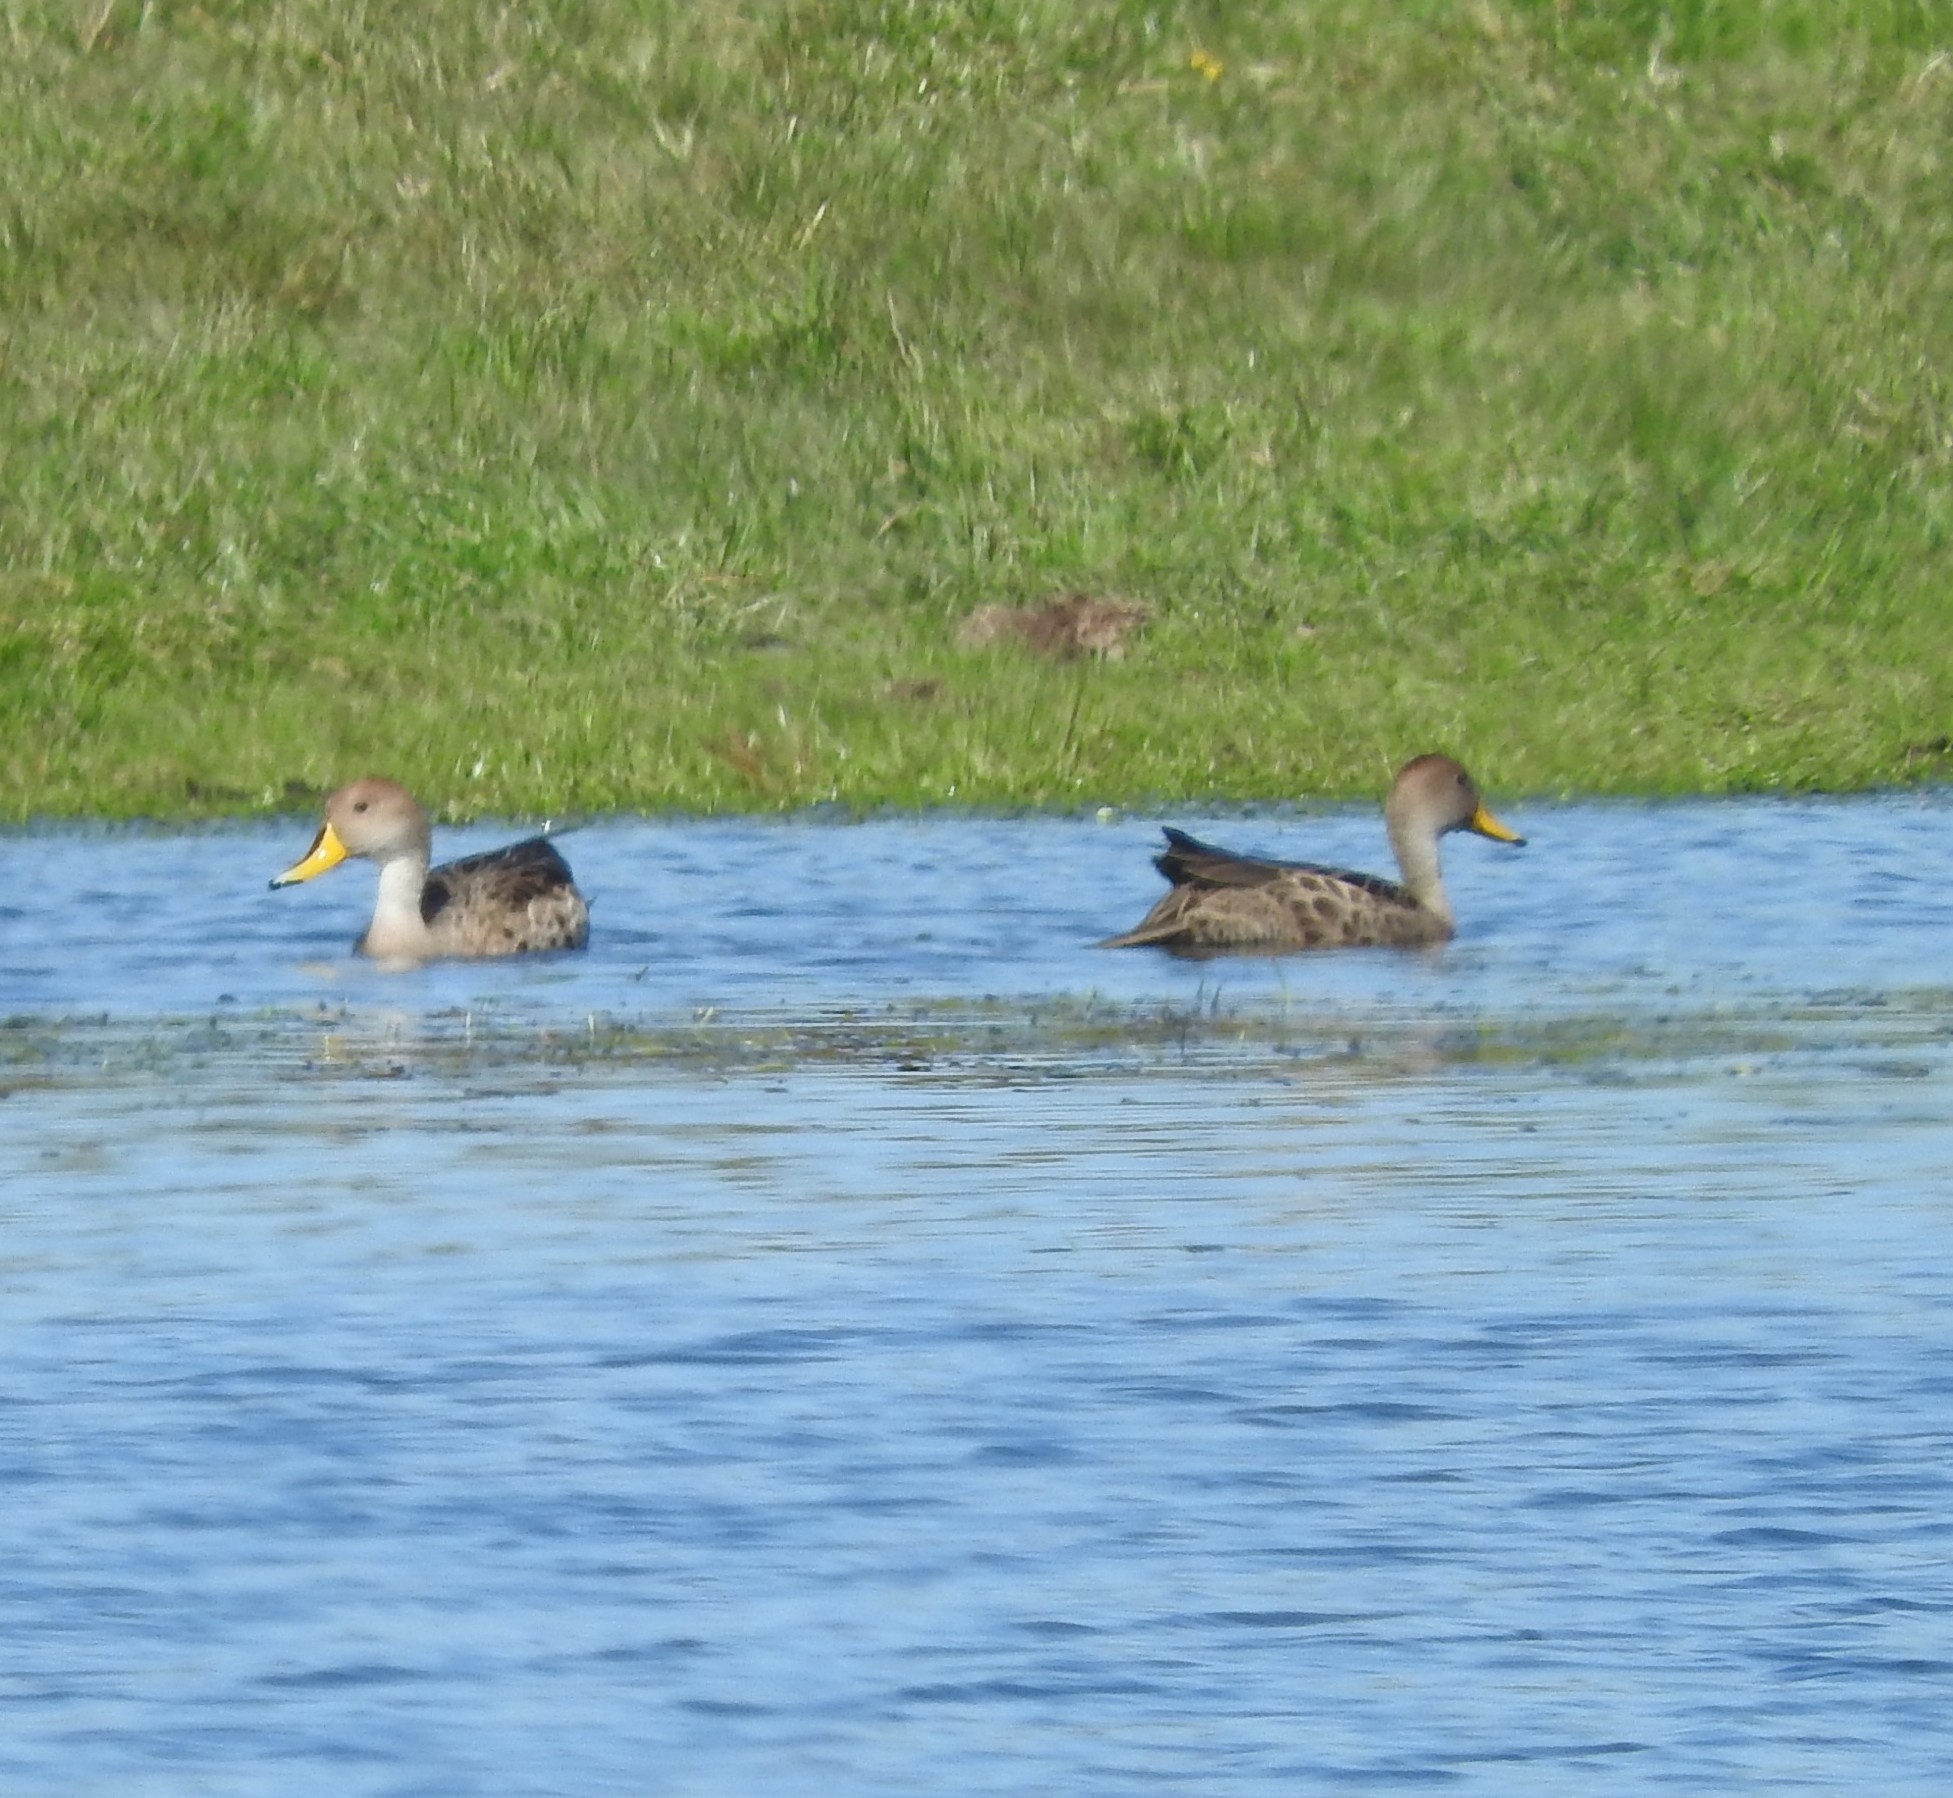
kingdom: Animalia
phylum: Chordata
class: Aves
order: Anseriformes
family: Anatidae
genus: Anas
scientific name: Anas georgica
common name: Yellow-billed pintail
